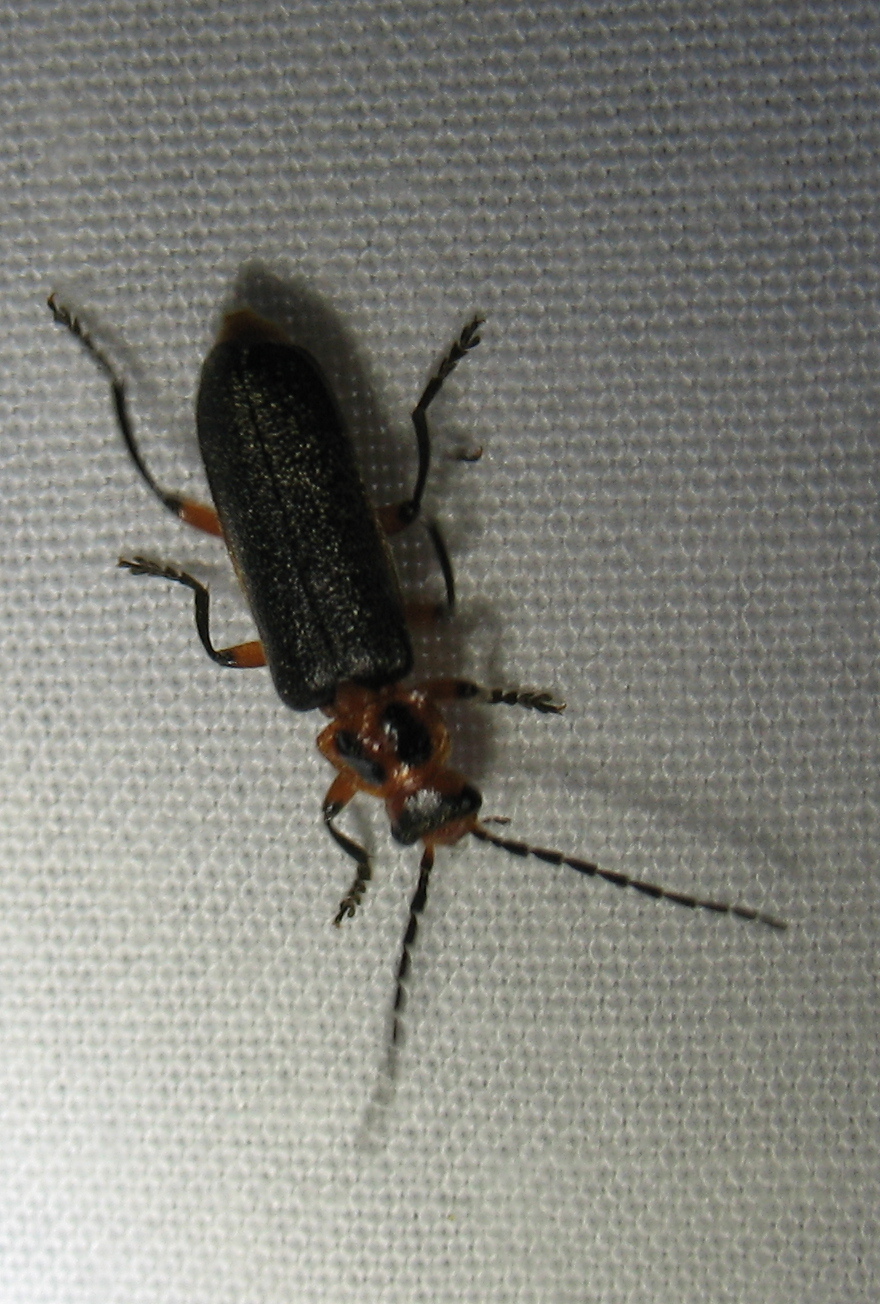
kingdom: Animalia
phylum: Arthropoda
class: Insecta
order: Coleoptera
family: Cantharidae
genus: Atalantycha
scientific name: Atalantycha bilineata
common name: Two-lined leatherwing
